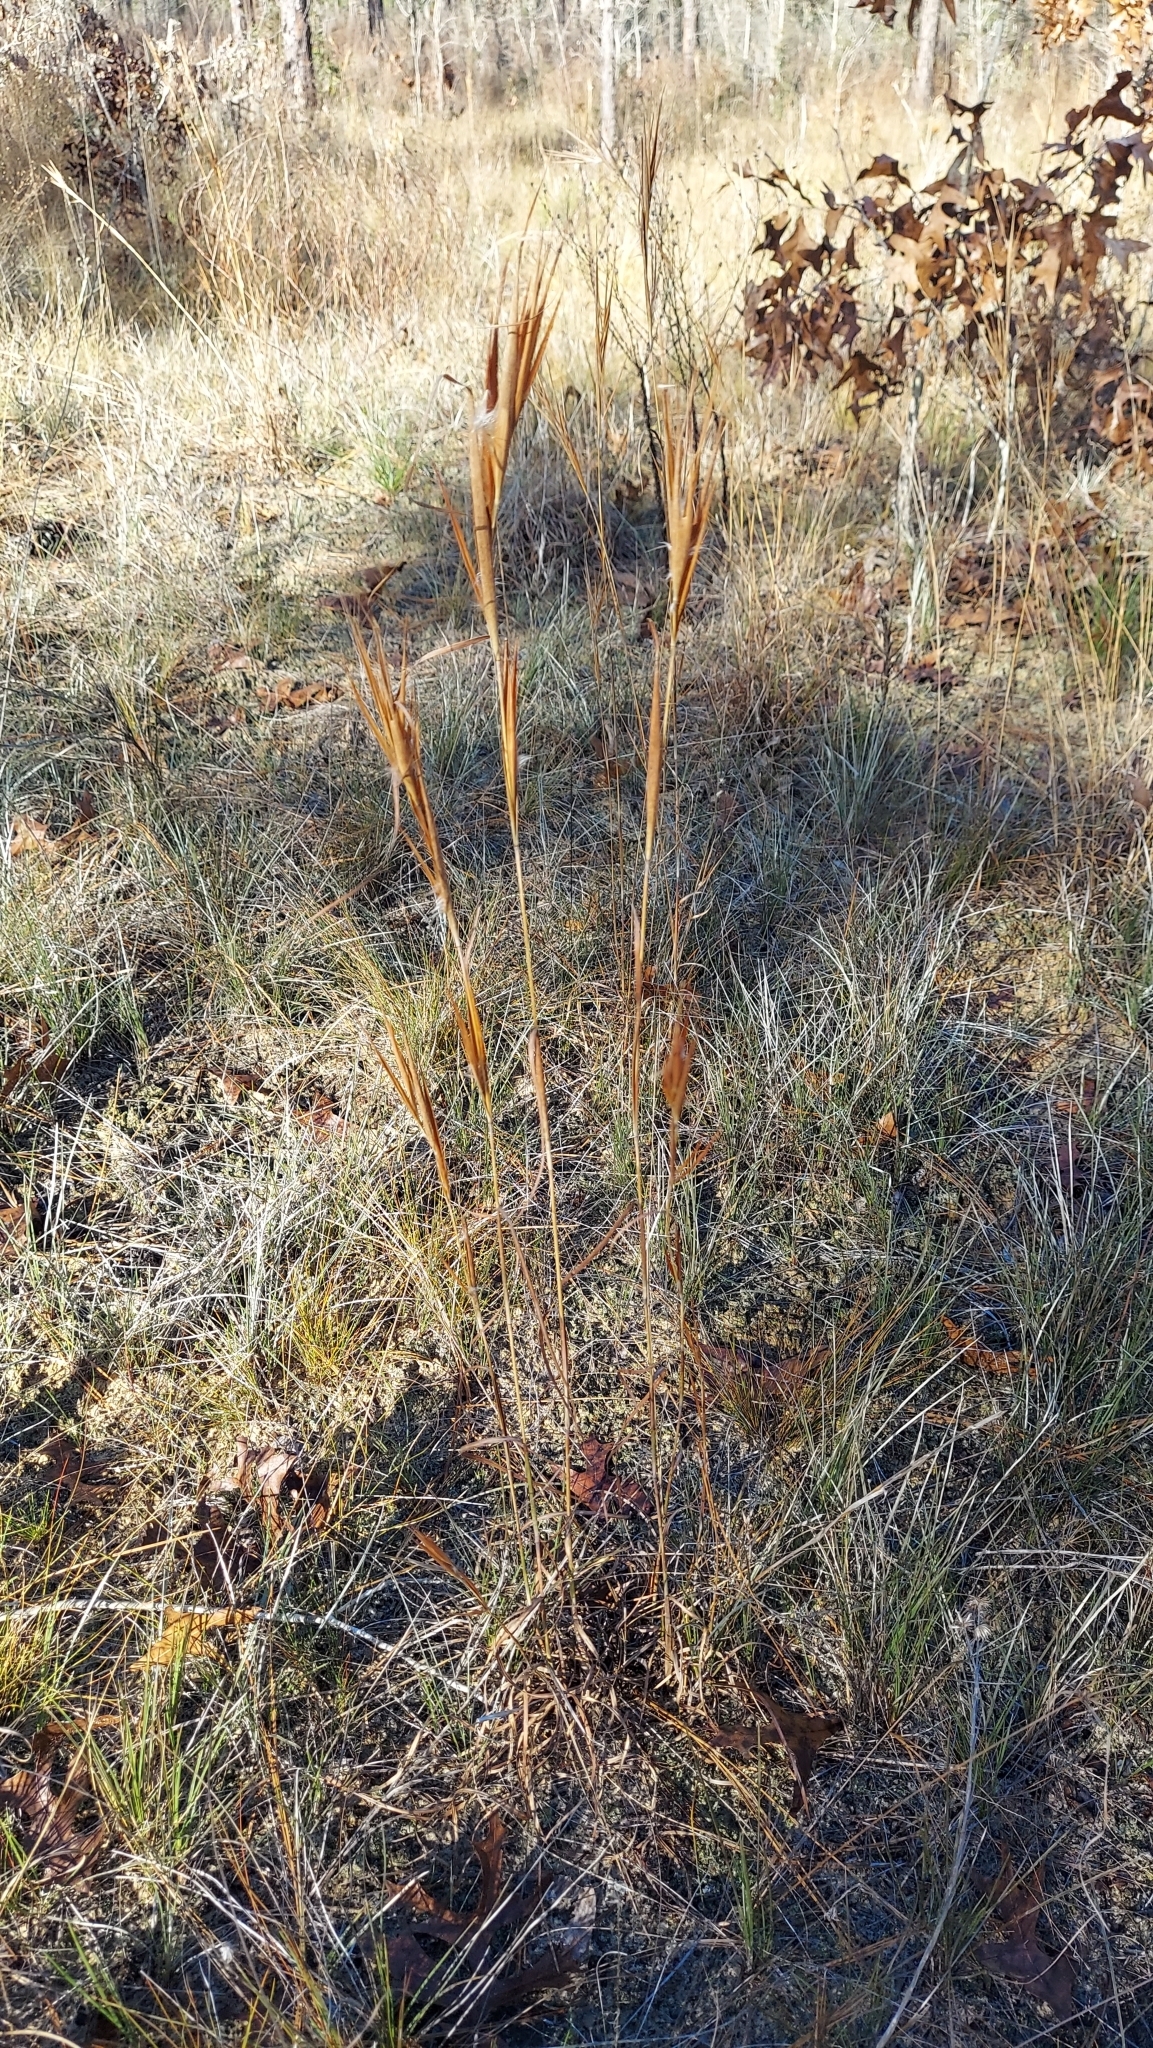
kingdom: Plantae
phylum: Tracheophyta
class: Liliopsida
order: Poales
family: Poaceae
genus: Andropogon
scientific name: Andropogon gyrans
